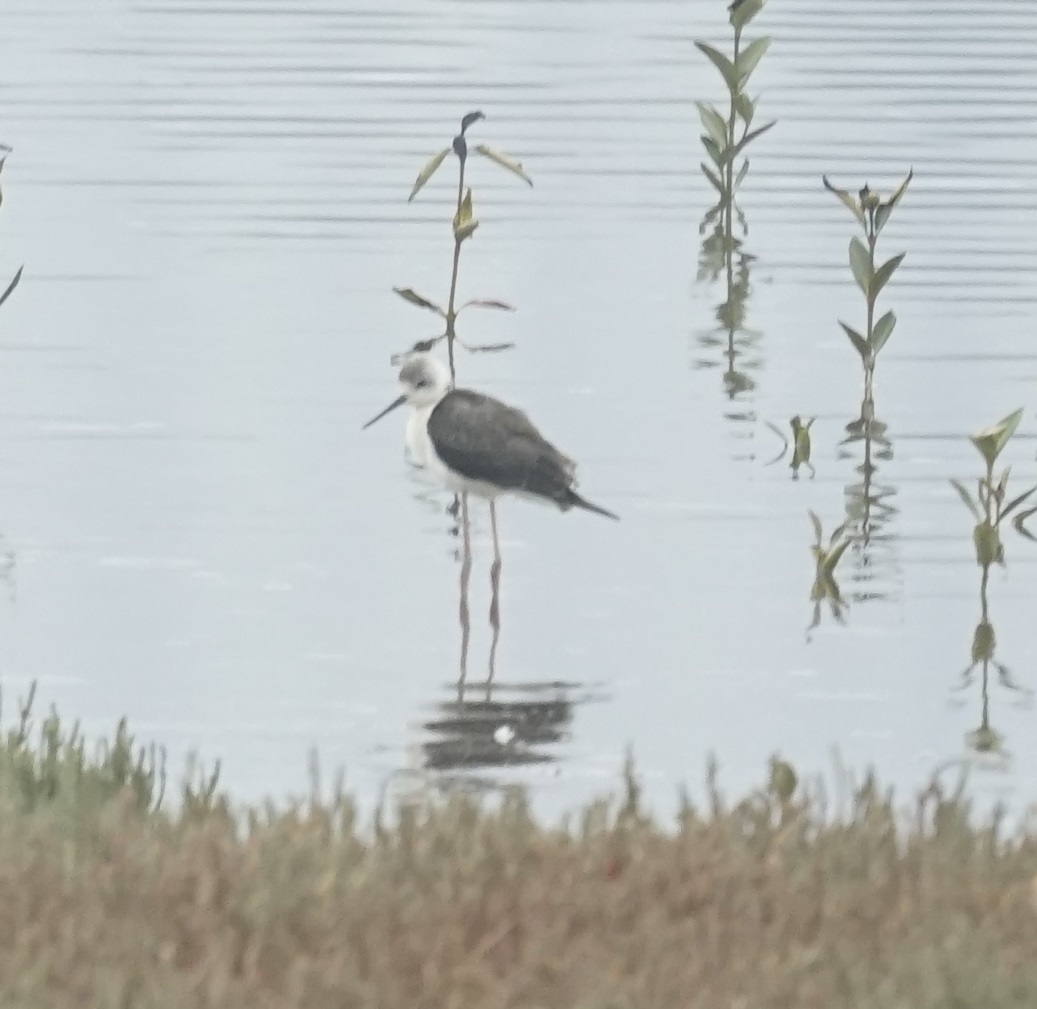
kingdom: Animalia
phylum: Chordata
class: Aves
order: Charadriiformes
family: Recurvirostridae
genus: Himantopus
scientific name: Himantopus leucocephalus
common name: White-headed stilt
